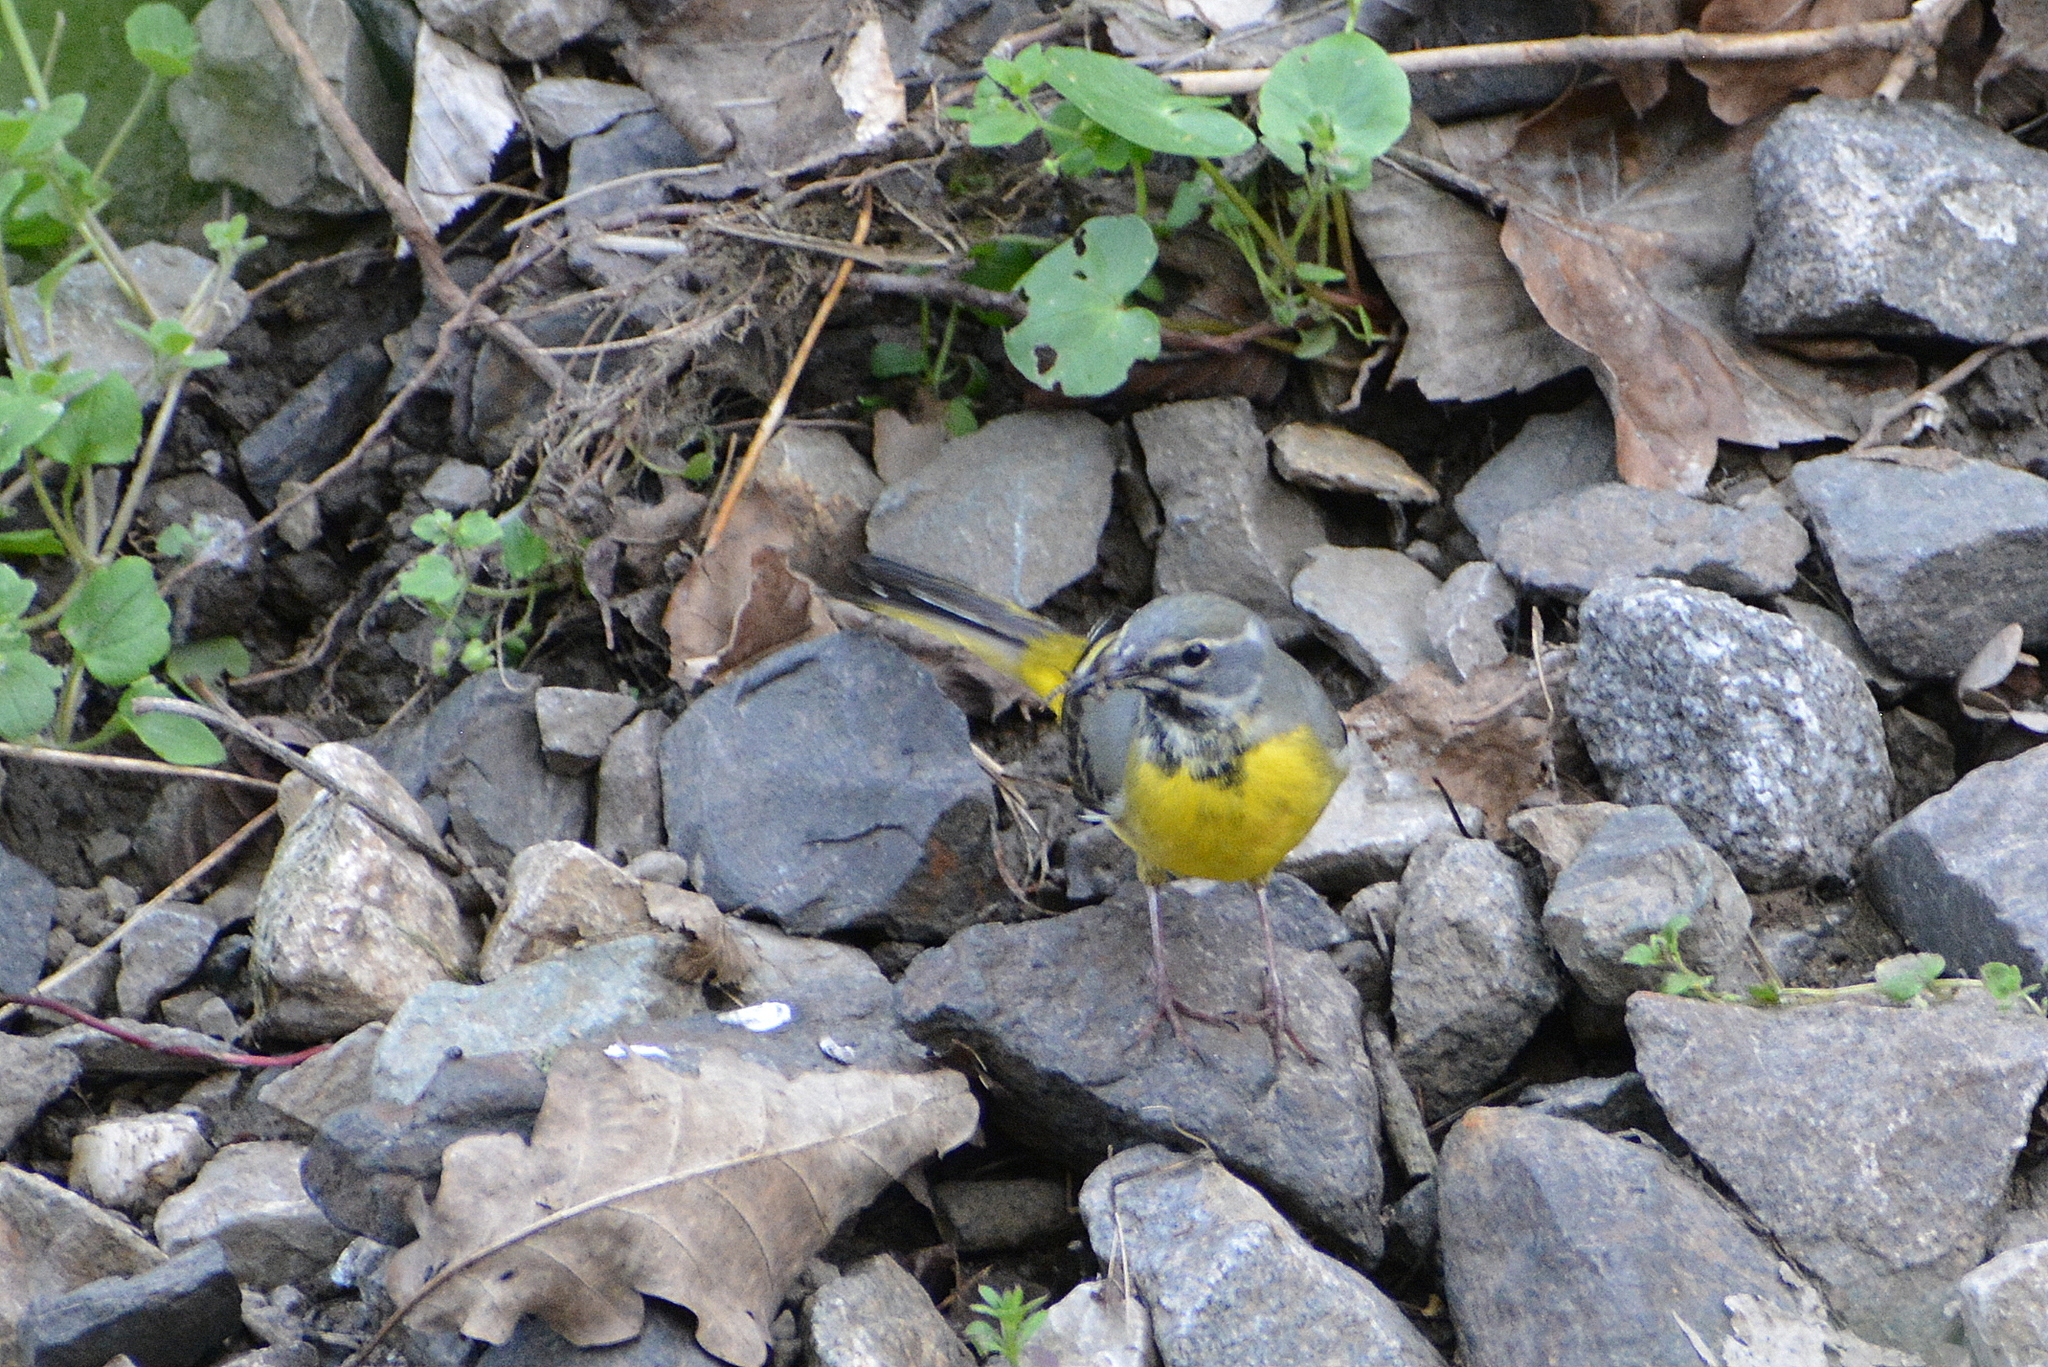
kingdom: Animalia
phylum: Chordata
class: Aves
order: Passeriformes
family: Motacillidae
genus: Motacilla
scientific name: Motacilla cinerea
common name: Grey wagtail
